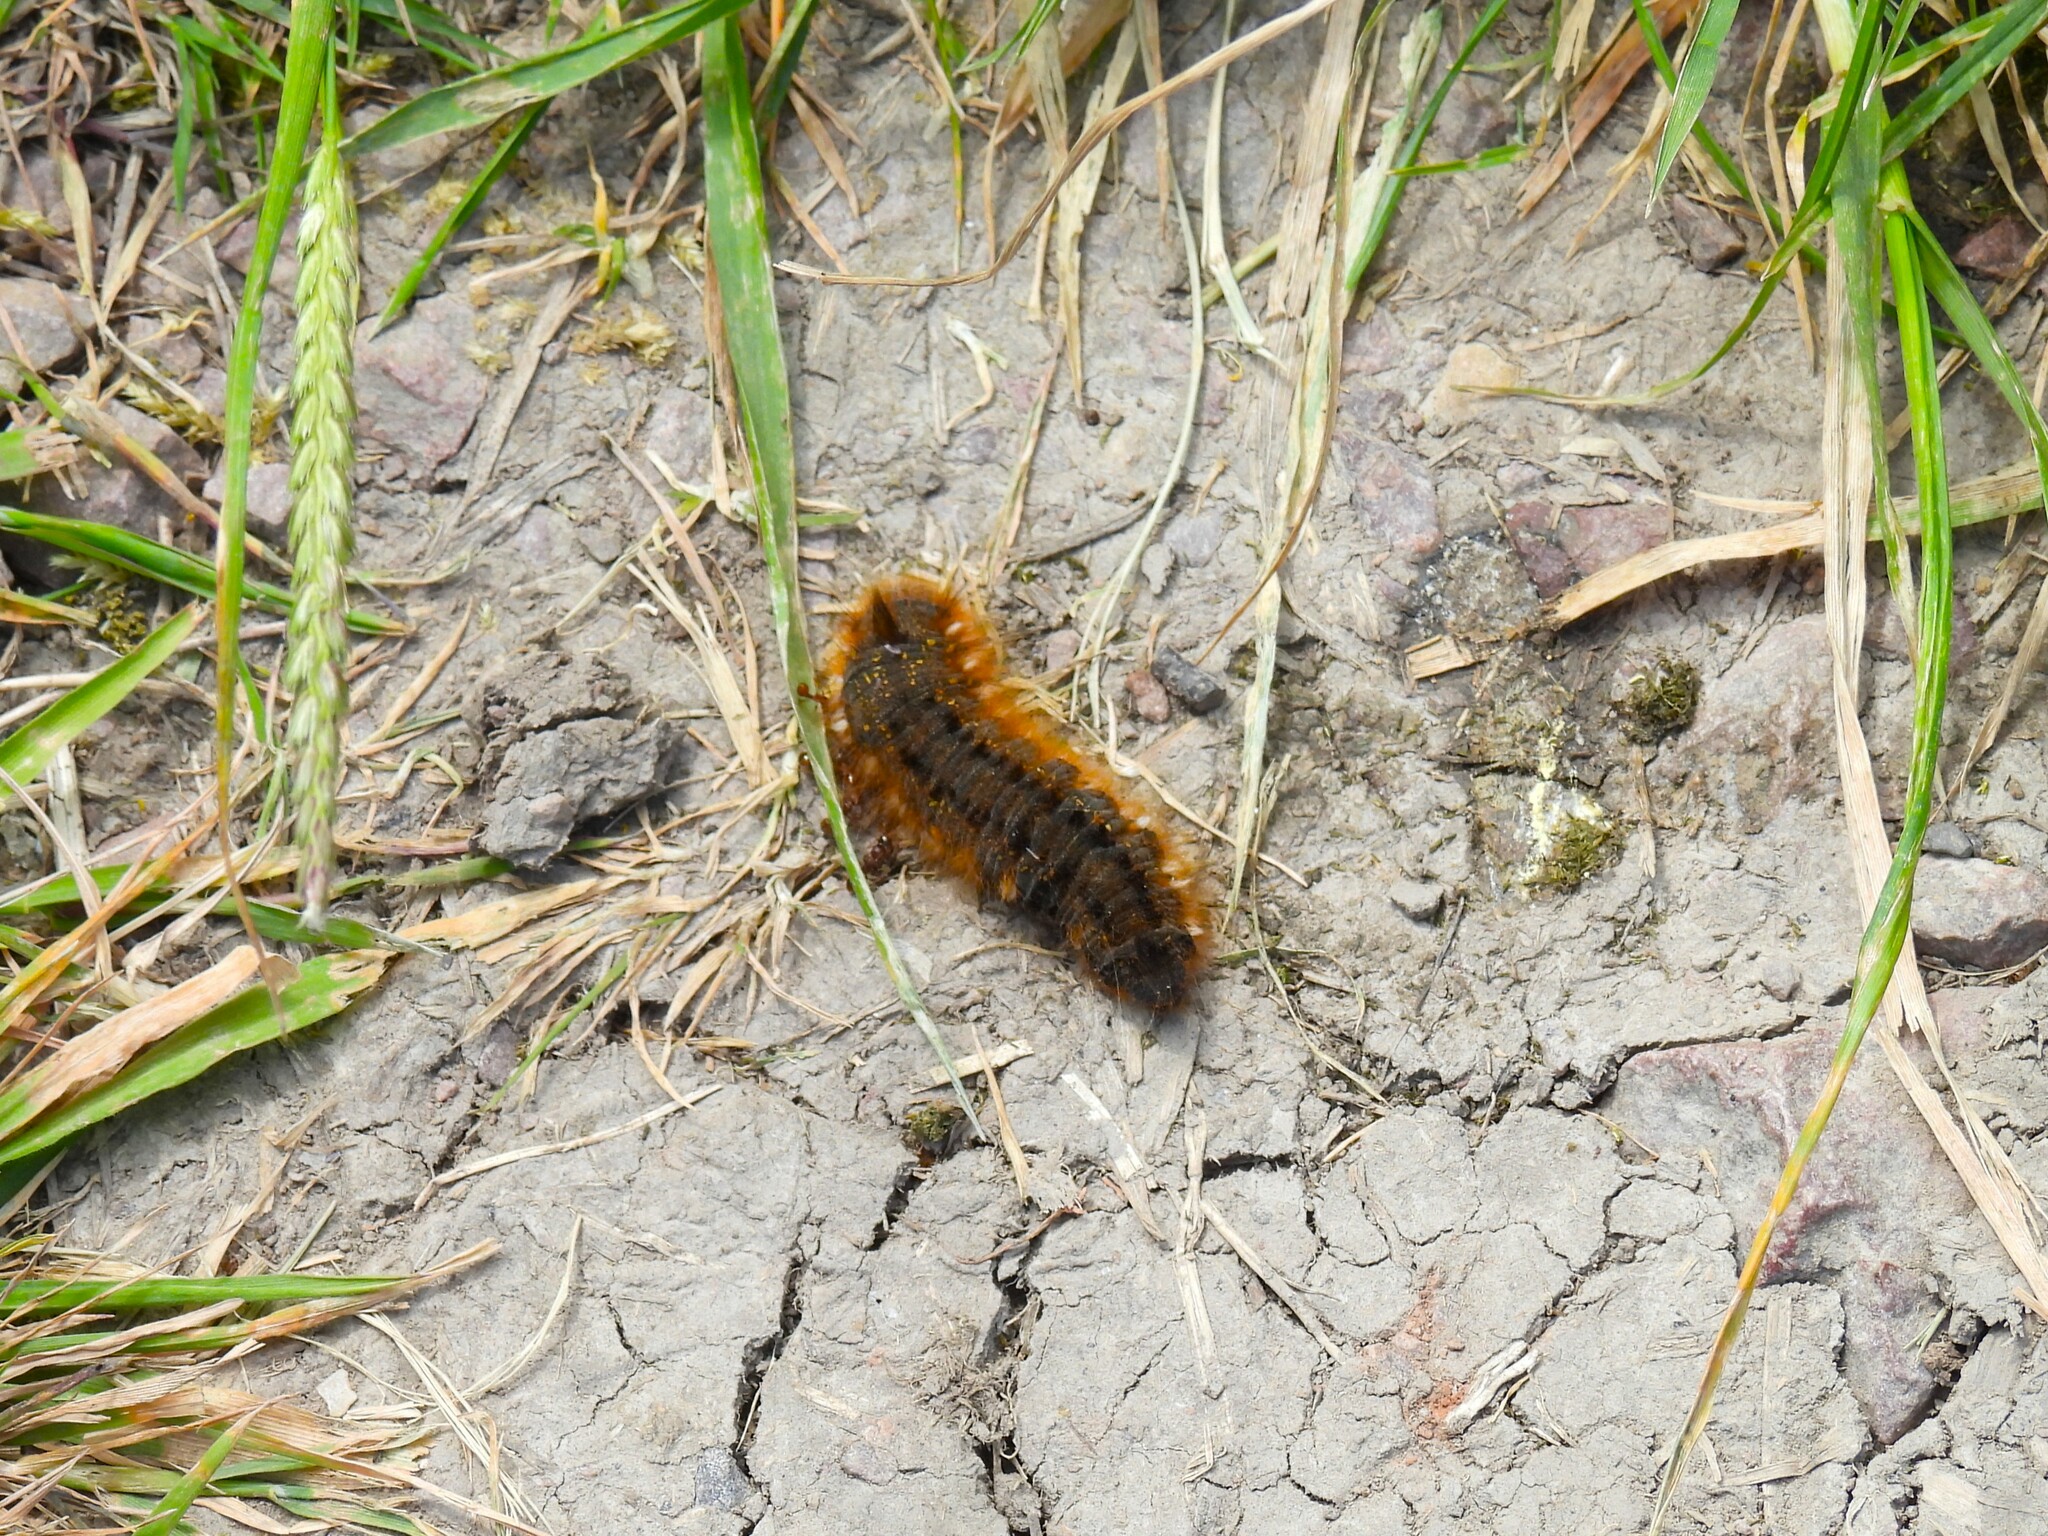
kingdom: Animalia
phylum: Arthropoda
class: Insecta
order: Lepidoptera
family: Lasiocampidae
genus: Euthrix
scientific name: Euthrix potatoria
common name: Drinker
